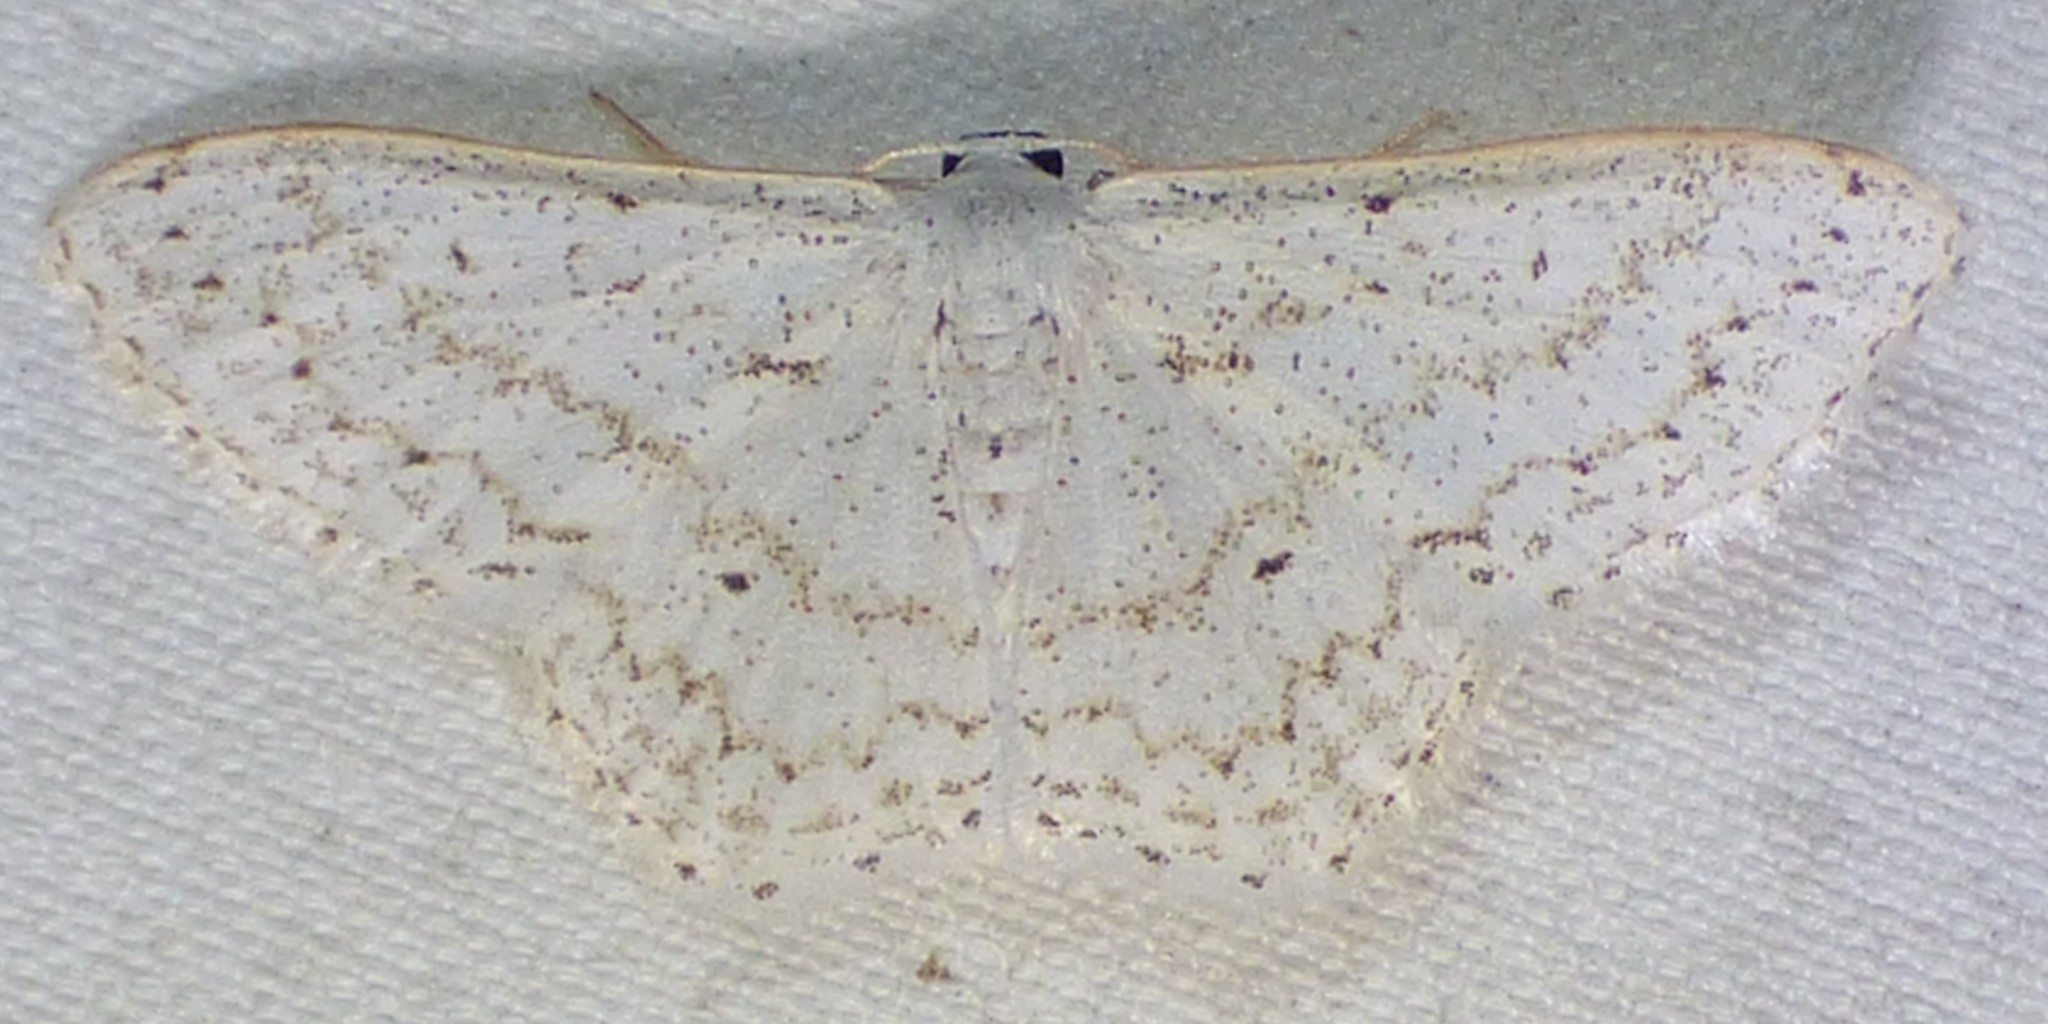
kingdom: Animalia
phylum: Arthropoda
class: Insecta
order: Lepidoptera
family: Geometridae
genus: Idaea
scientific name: Idaea tacturata
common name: Dot-lined wave
